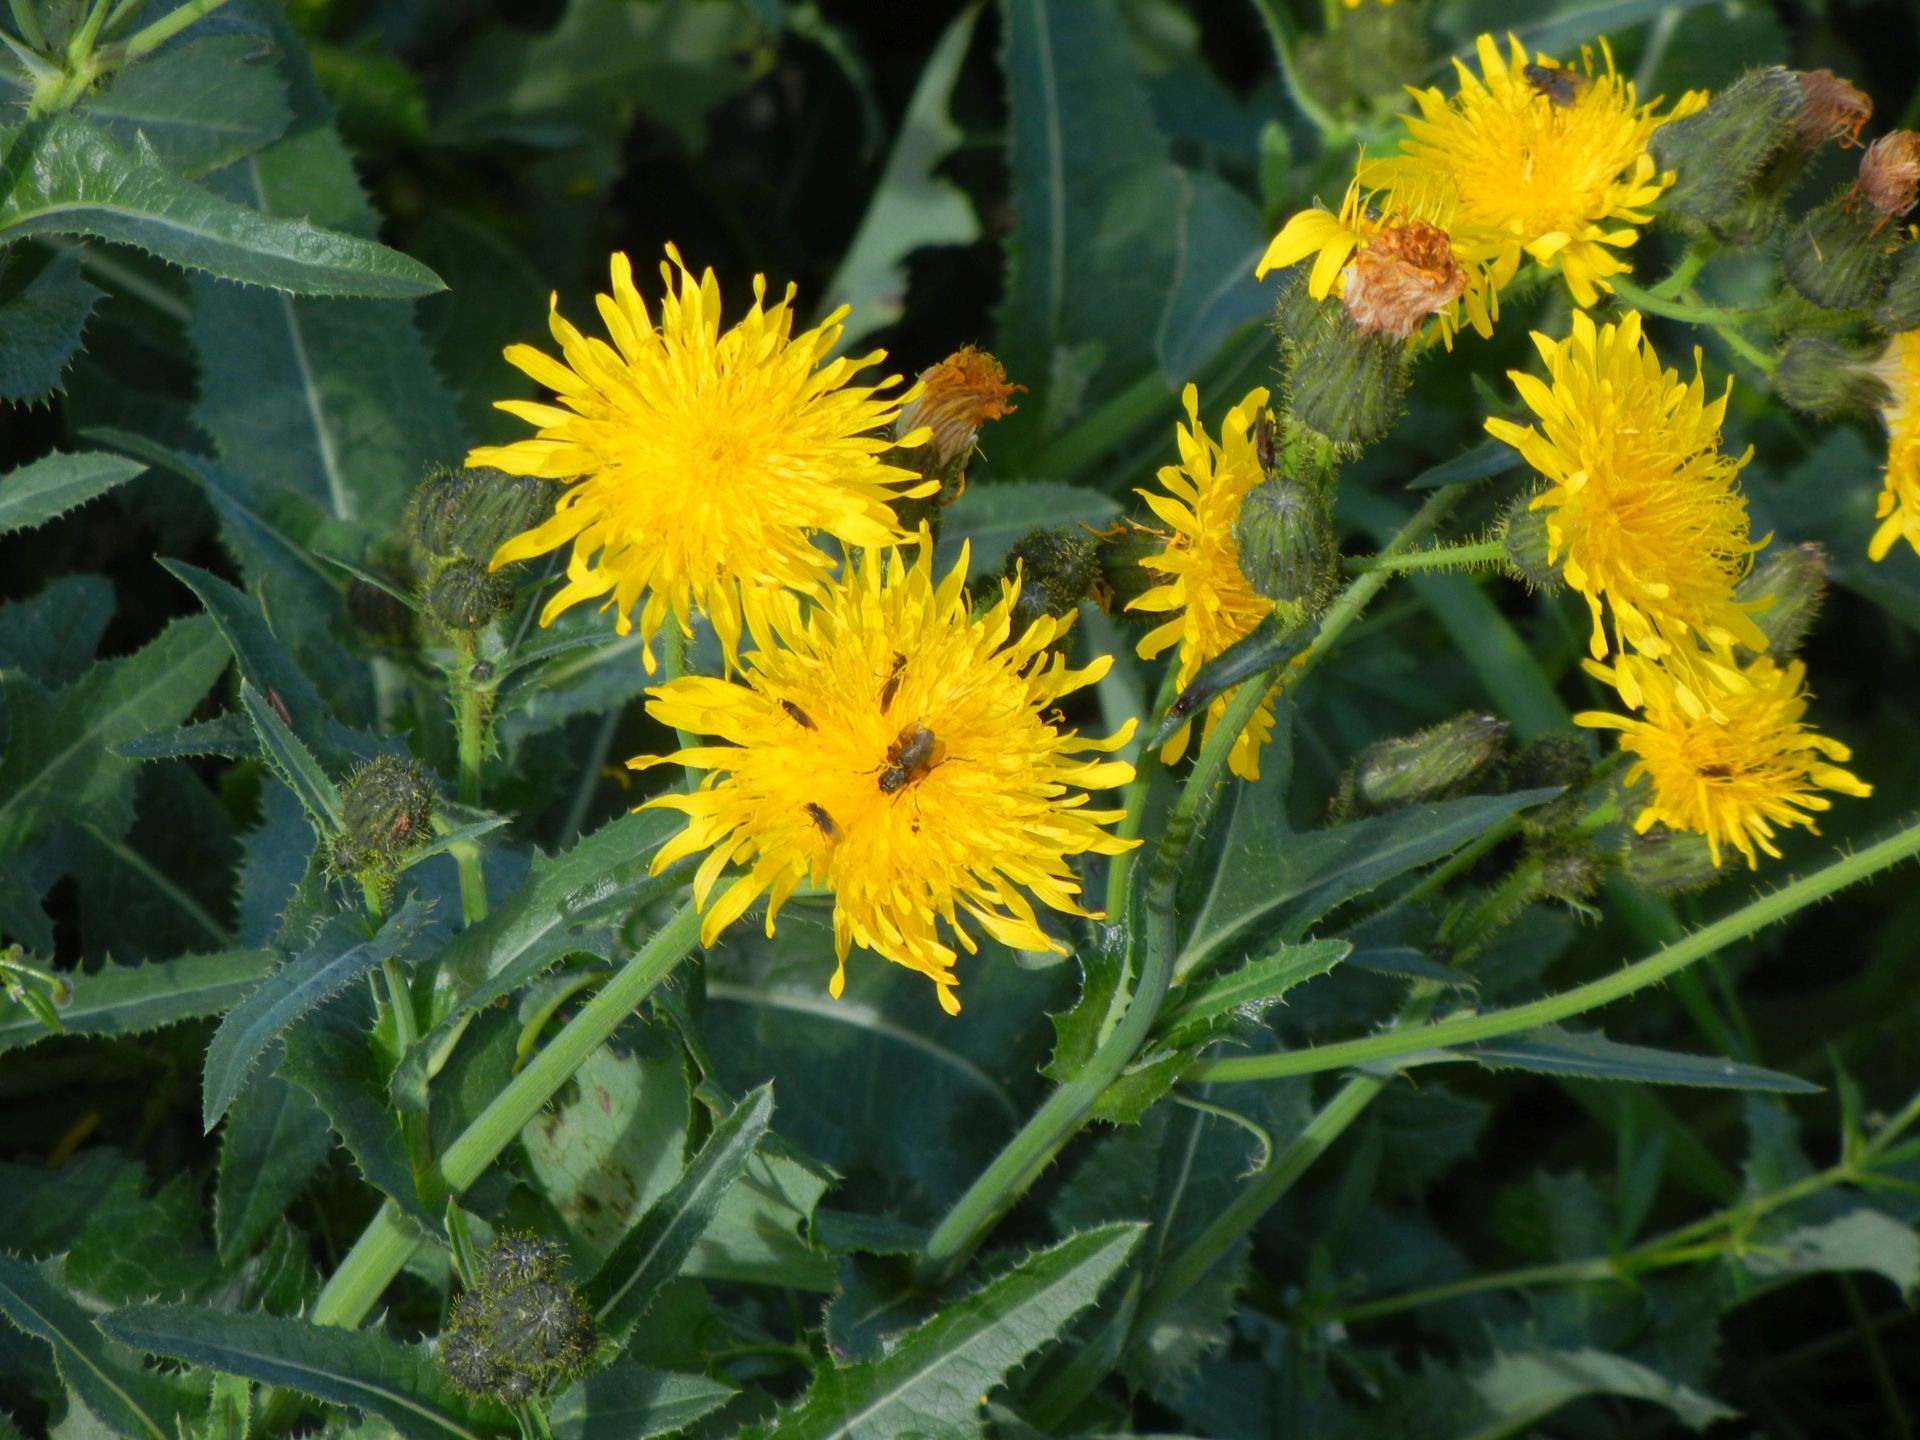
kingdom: Plantae
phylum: Tracheophyta
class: Magnoliopsida
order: Asterales
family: Asteraceae
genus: Sonchus
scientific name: Sonchus arvensis
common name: Perennial sow-thistle
